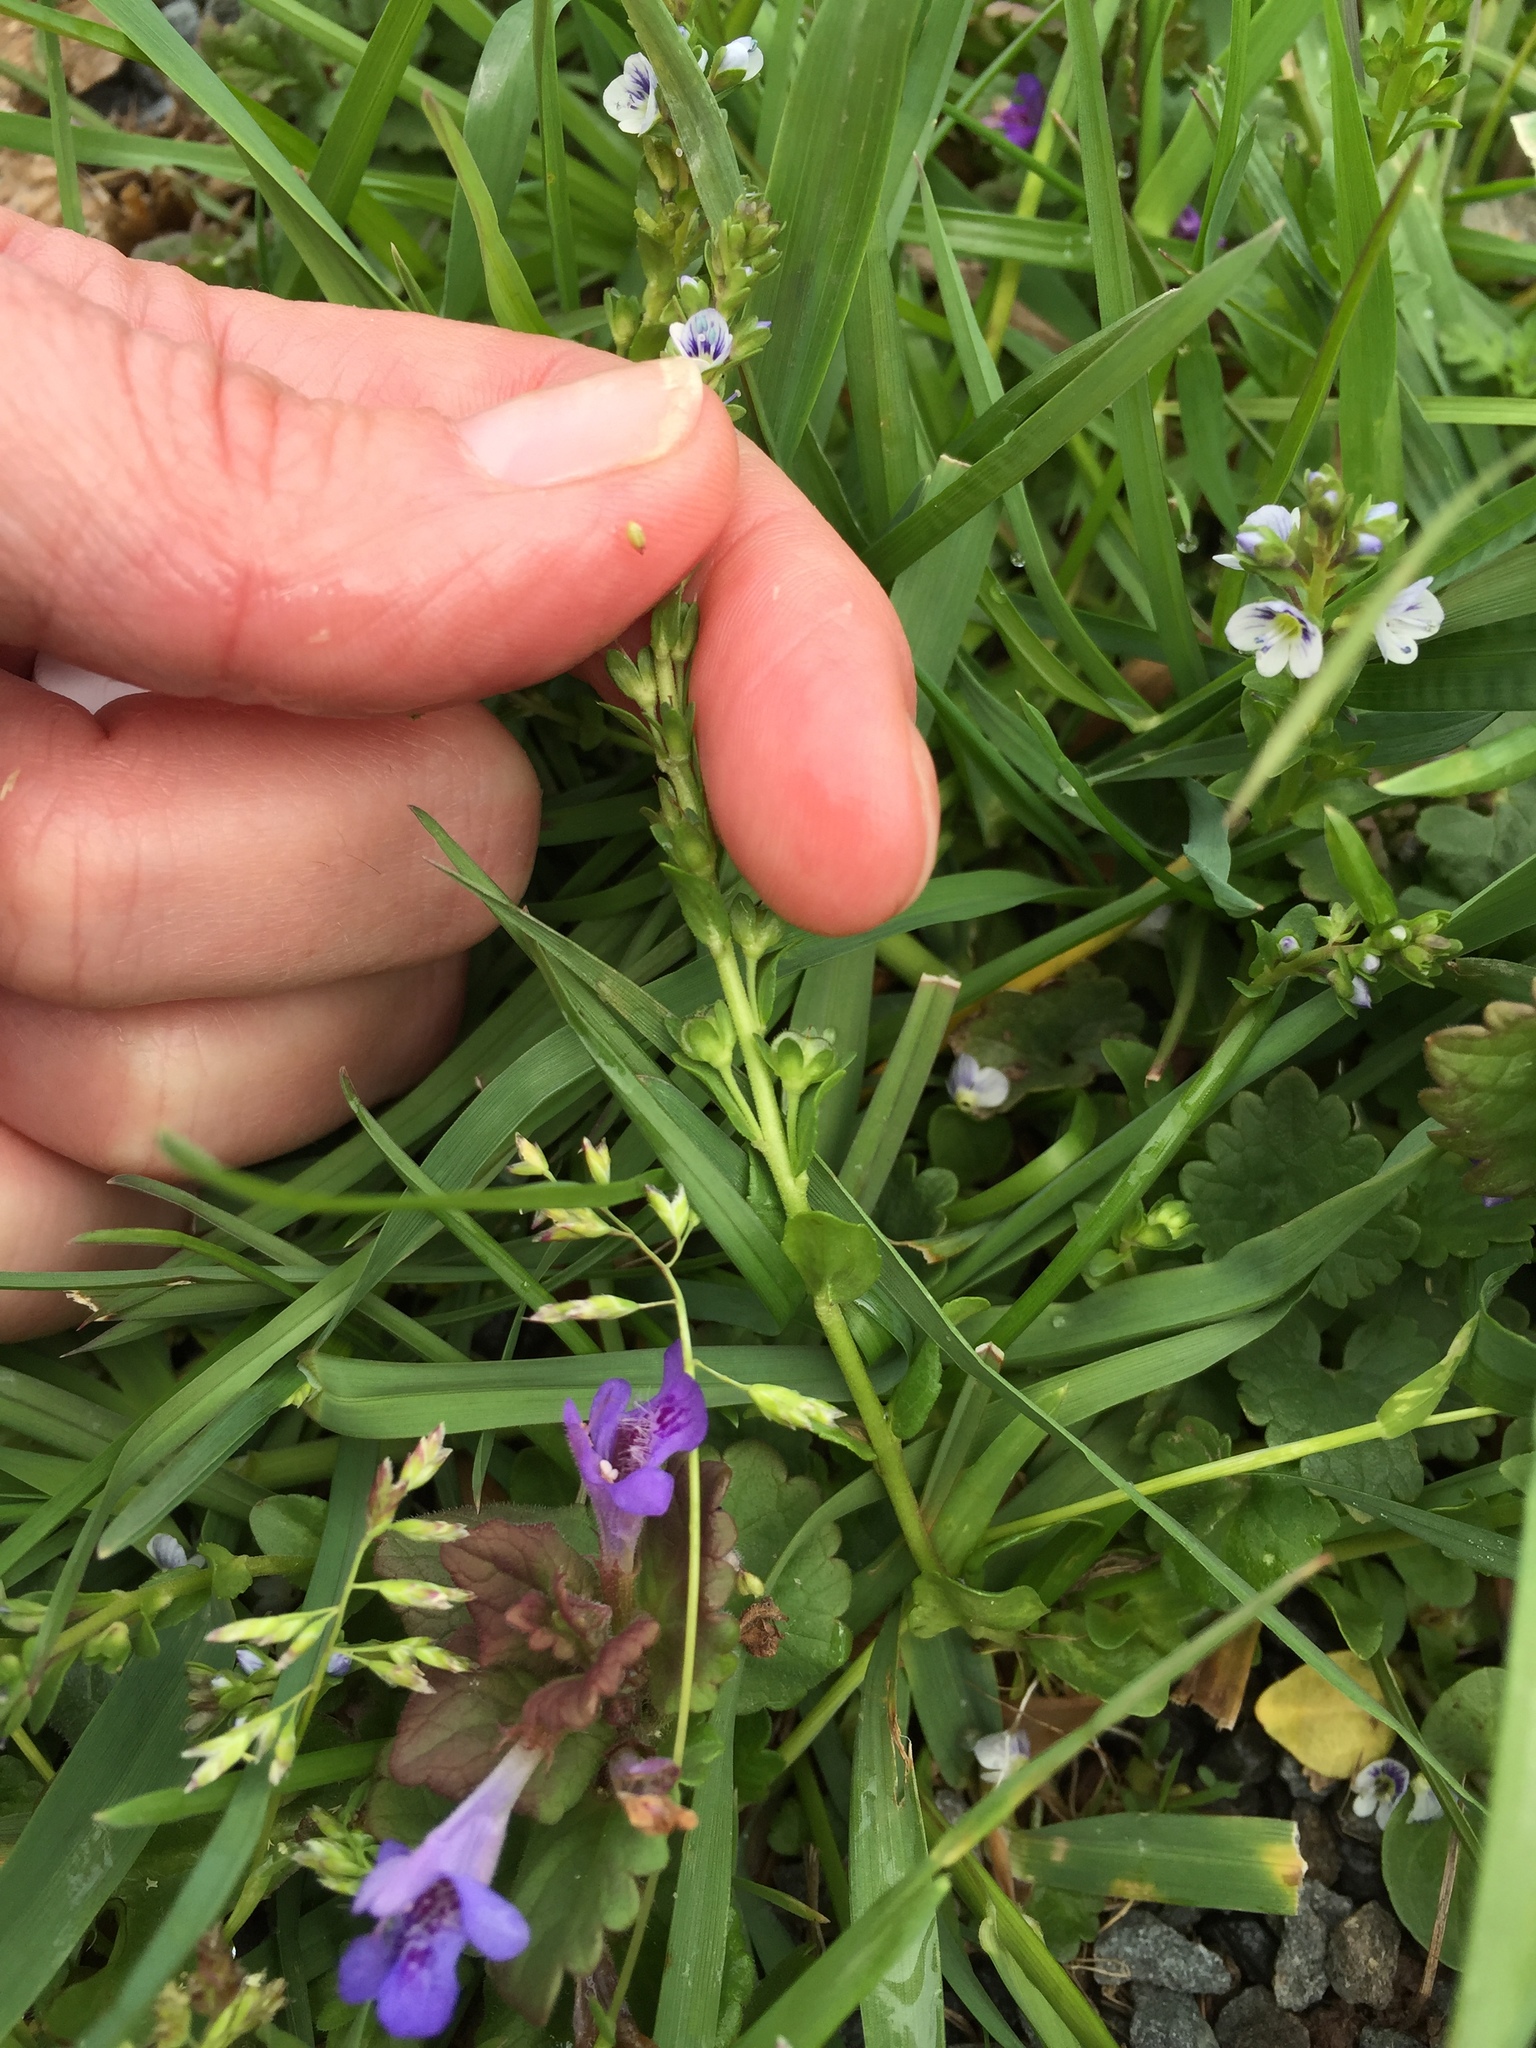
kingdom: Plantae
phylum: Tracheophyta
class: Magnoliopsida
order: Lamiales
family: Plantaginaceae
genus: Veronica
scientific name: Veronica serpyllifolia
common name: Thyme-leaved speedwell
